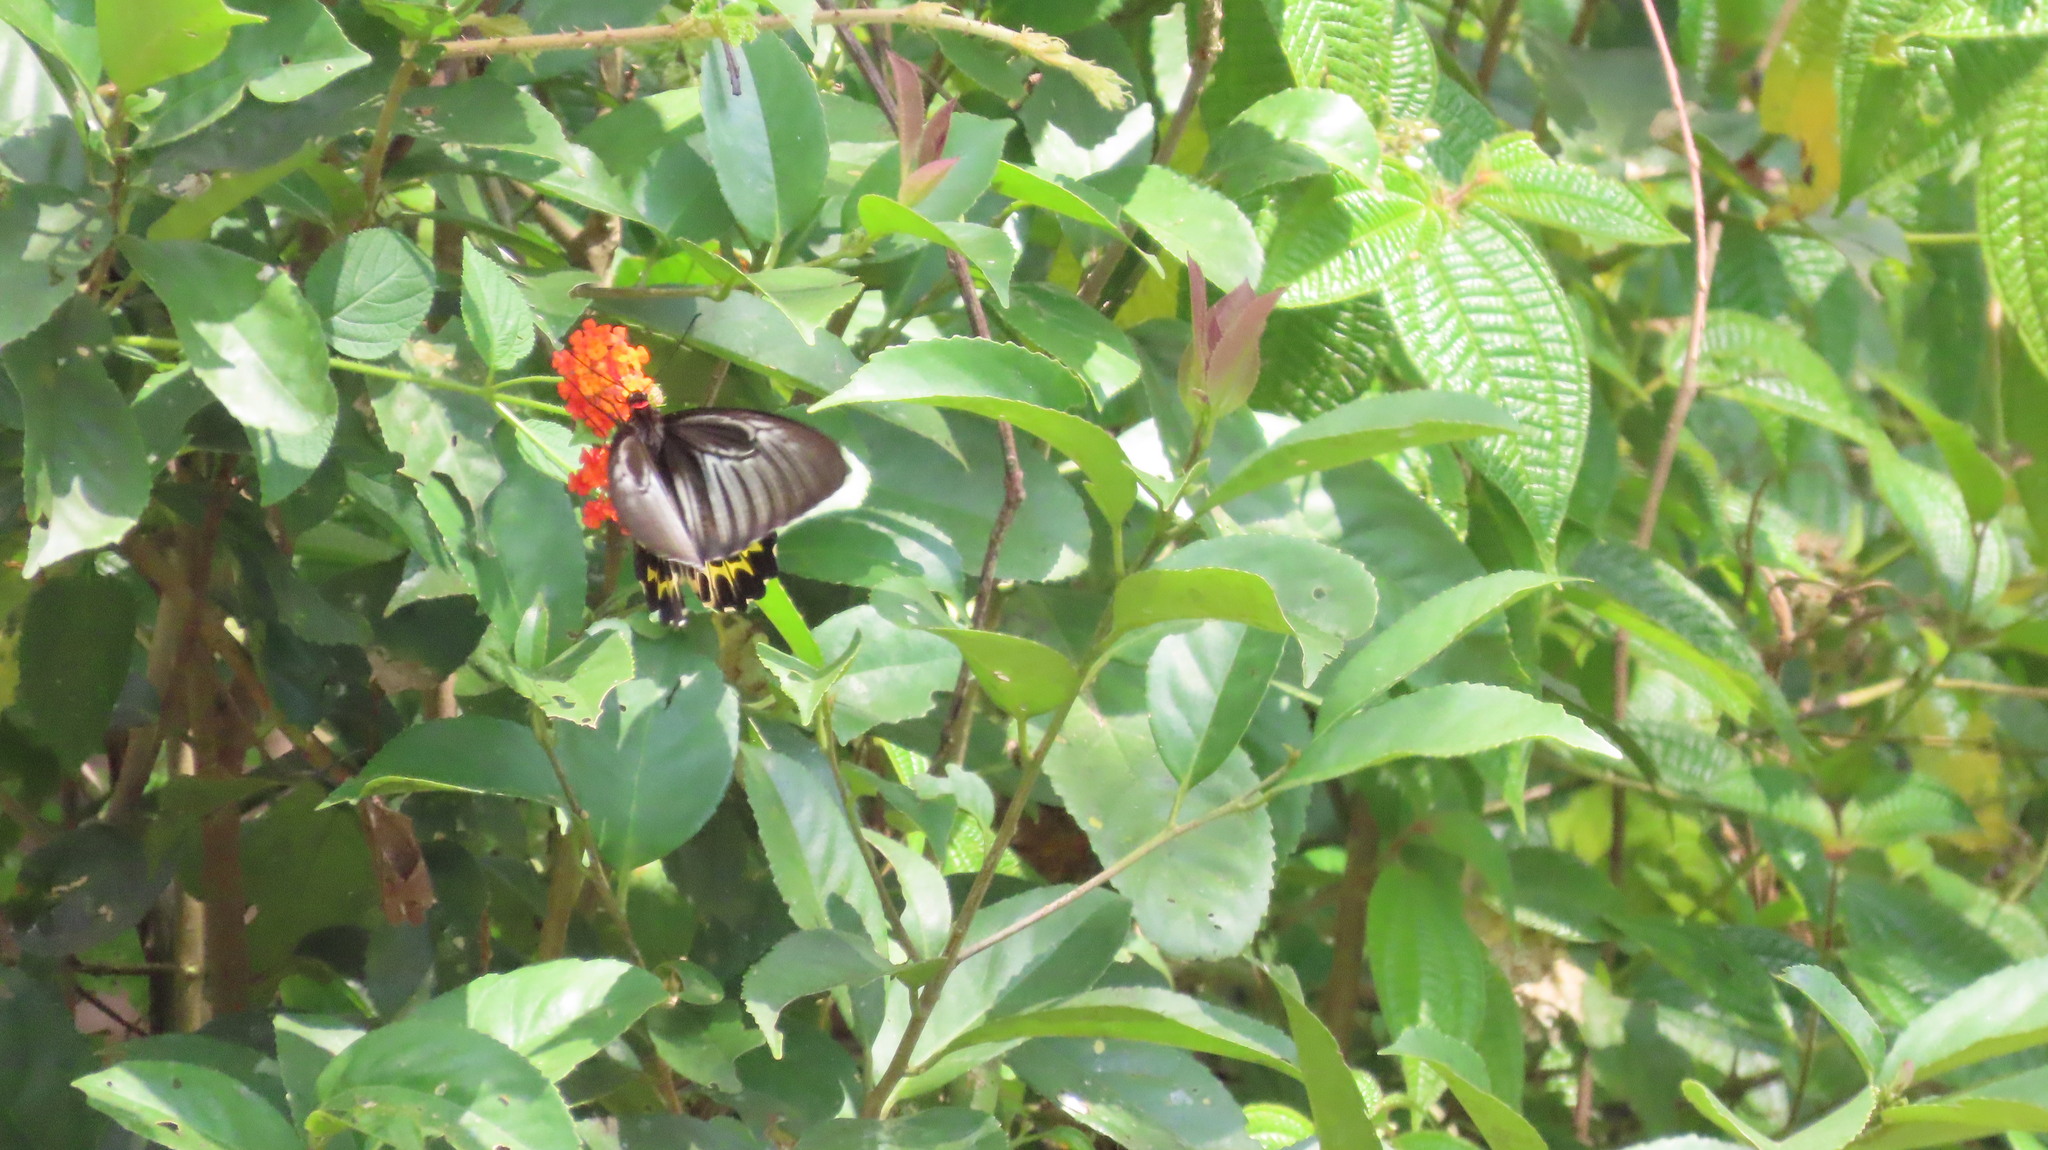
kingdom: Animalia
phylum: Arthropoda
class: Insecta
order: Lepidoptera
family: Papilionidae
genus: Troides
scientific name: Troides minos
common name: Malabar birdwing
